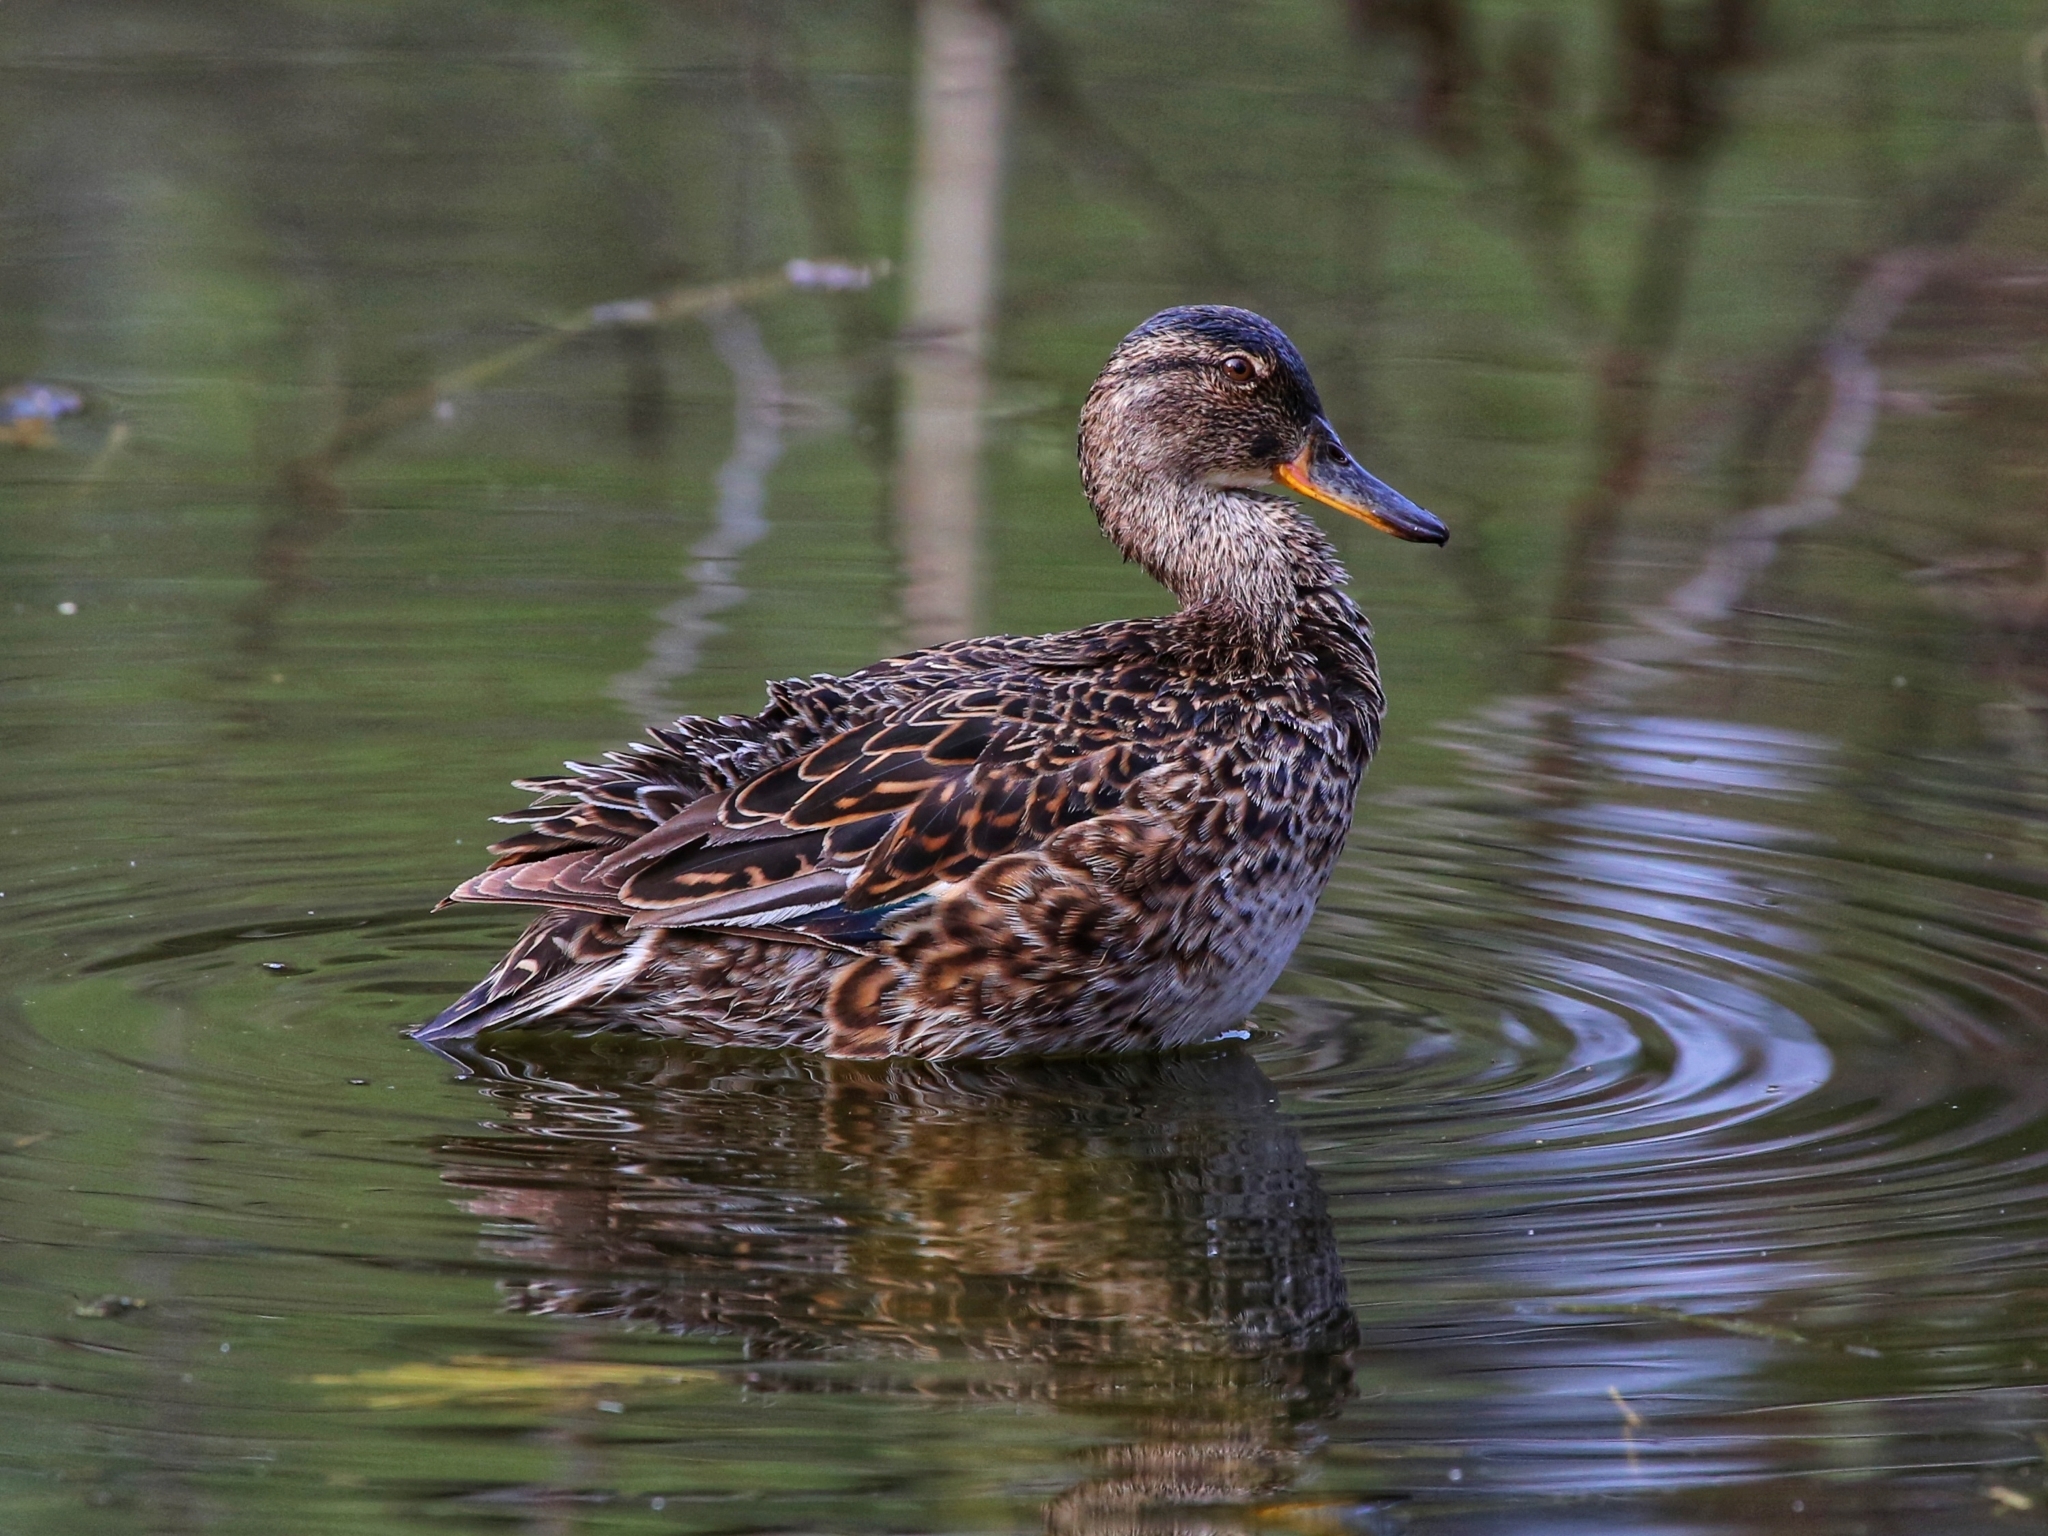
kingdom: Animalia
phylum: Chordata
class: Aves
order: Anseriformes
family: Anatidae
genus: Anas
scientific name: Anas crecca
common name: Eurasian teal
